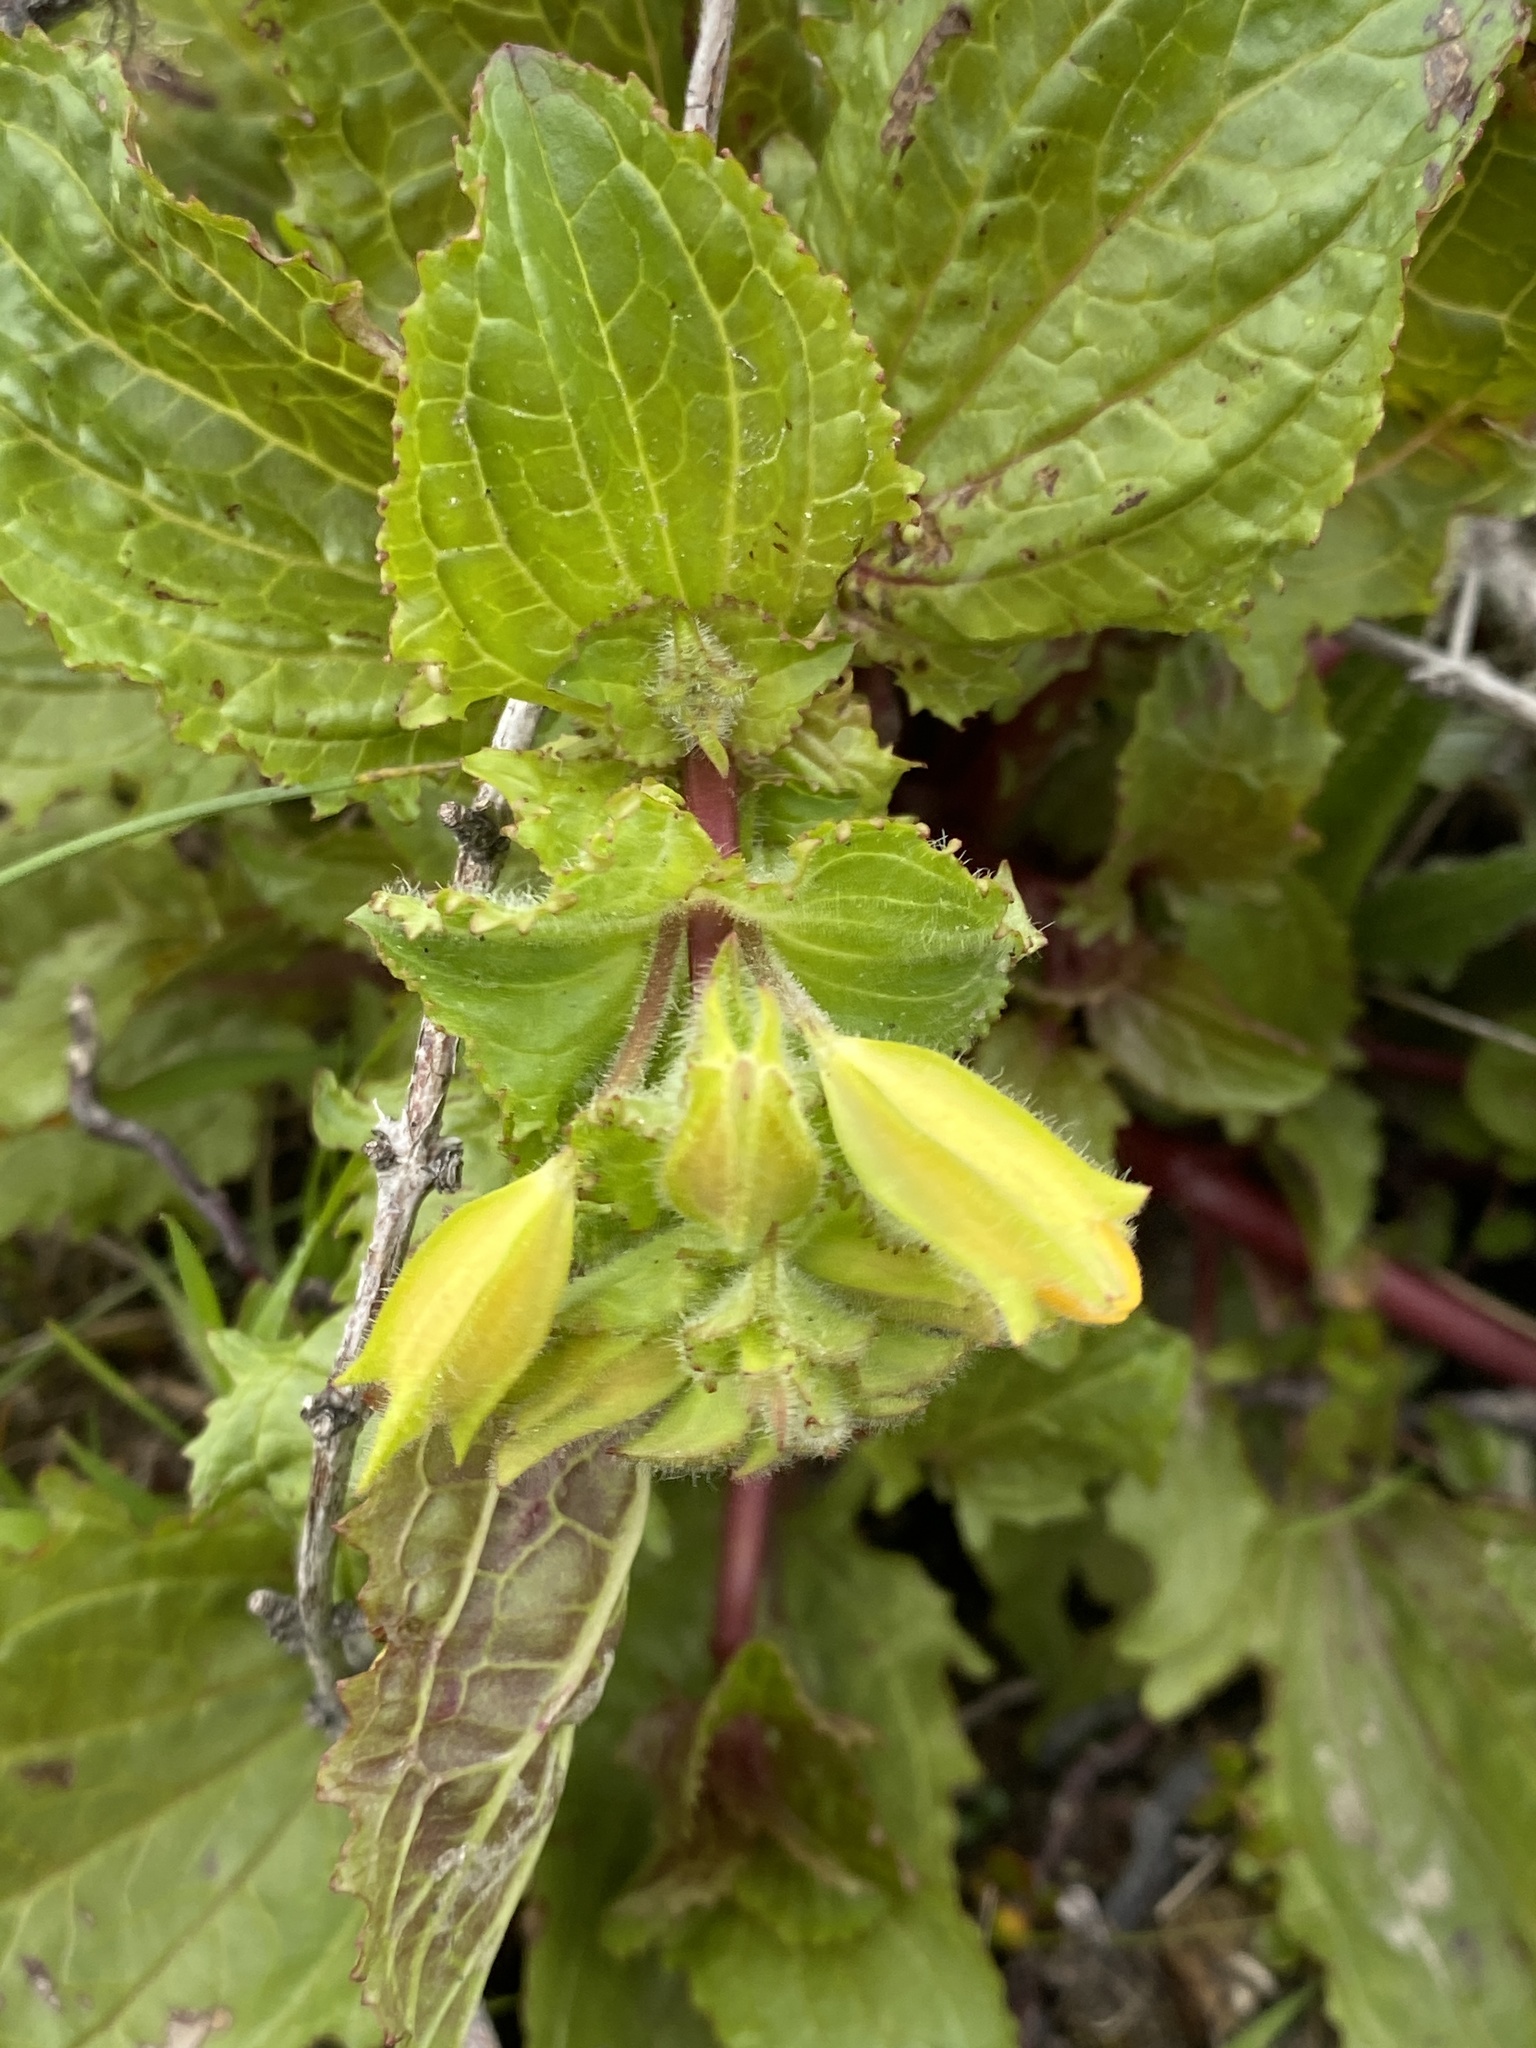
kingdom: Plantae
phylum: Tracheophyta
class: Magnoliopsida
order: Lamiales
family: Phrymaceae
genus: Erythranthe
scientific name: Erythranthe guttata
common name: Monkeyflower
